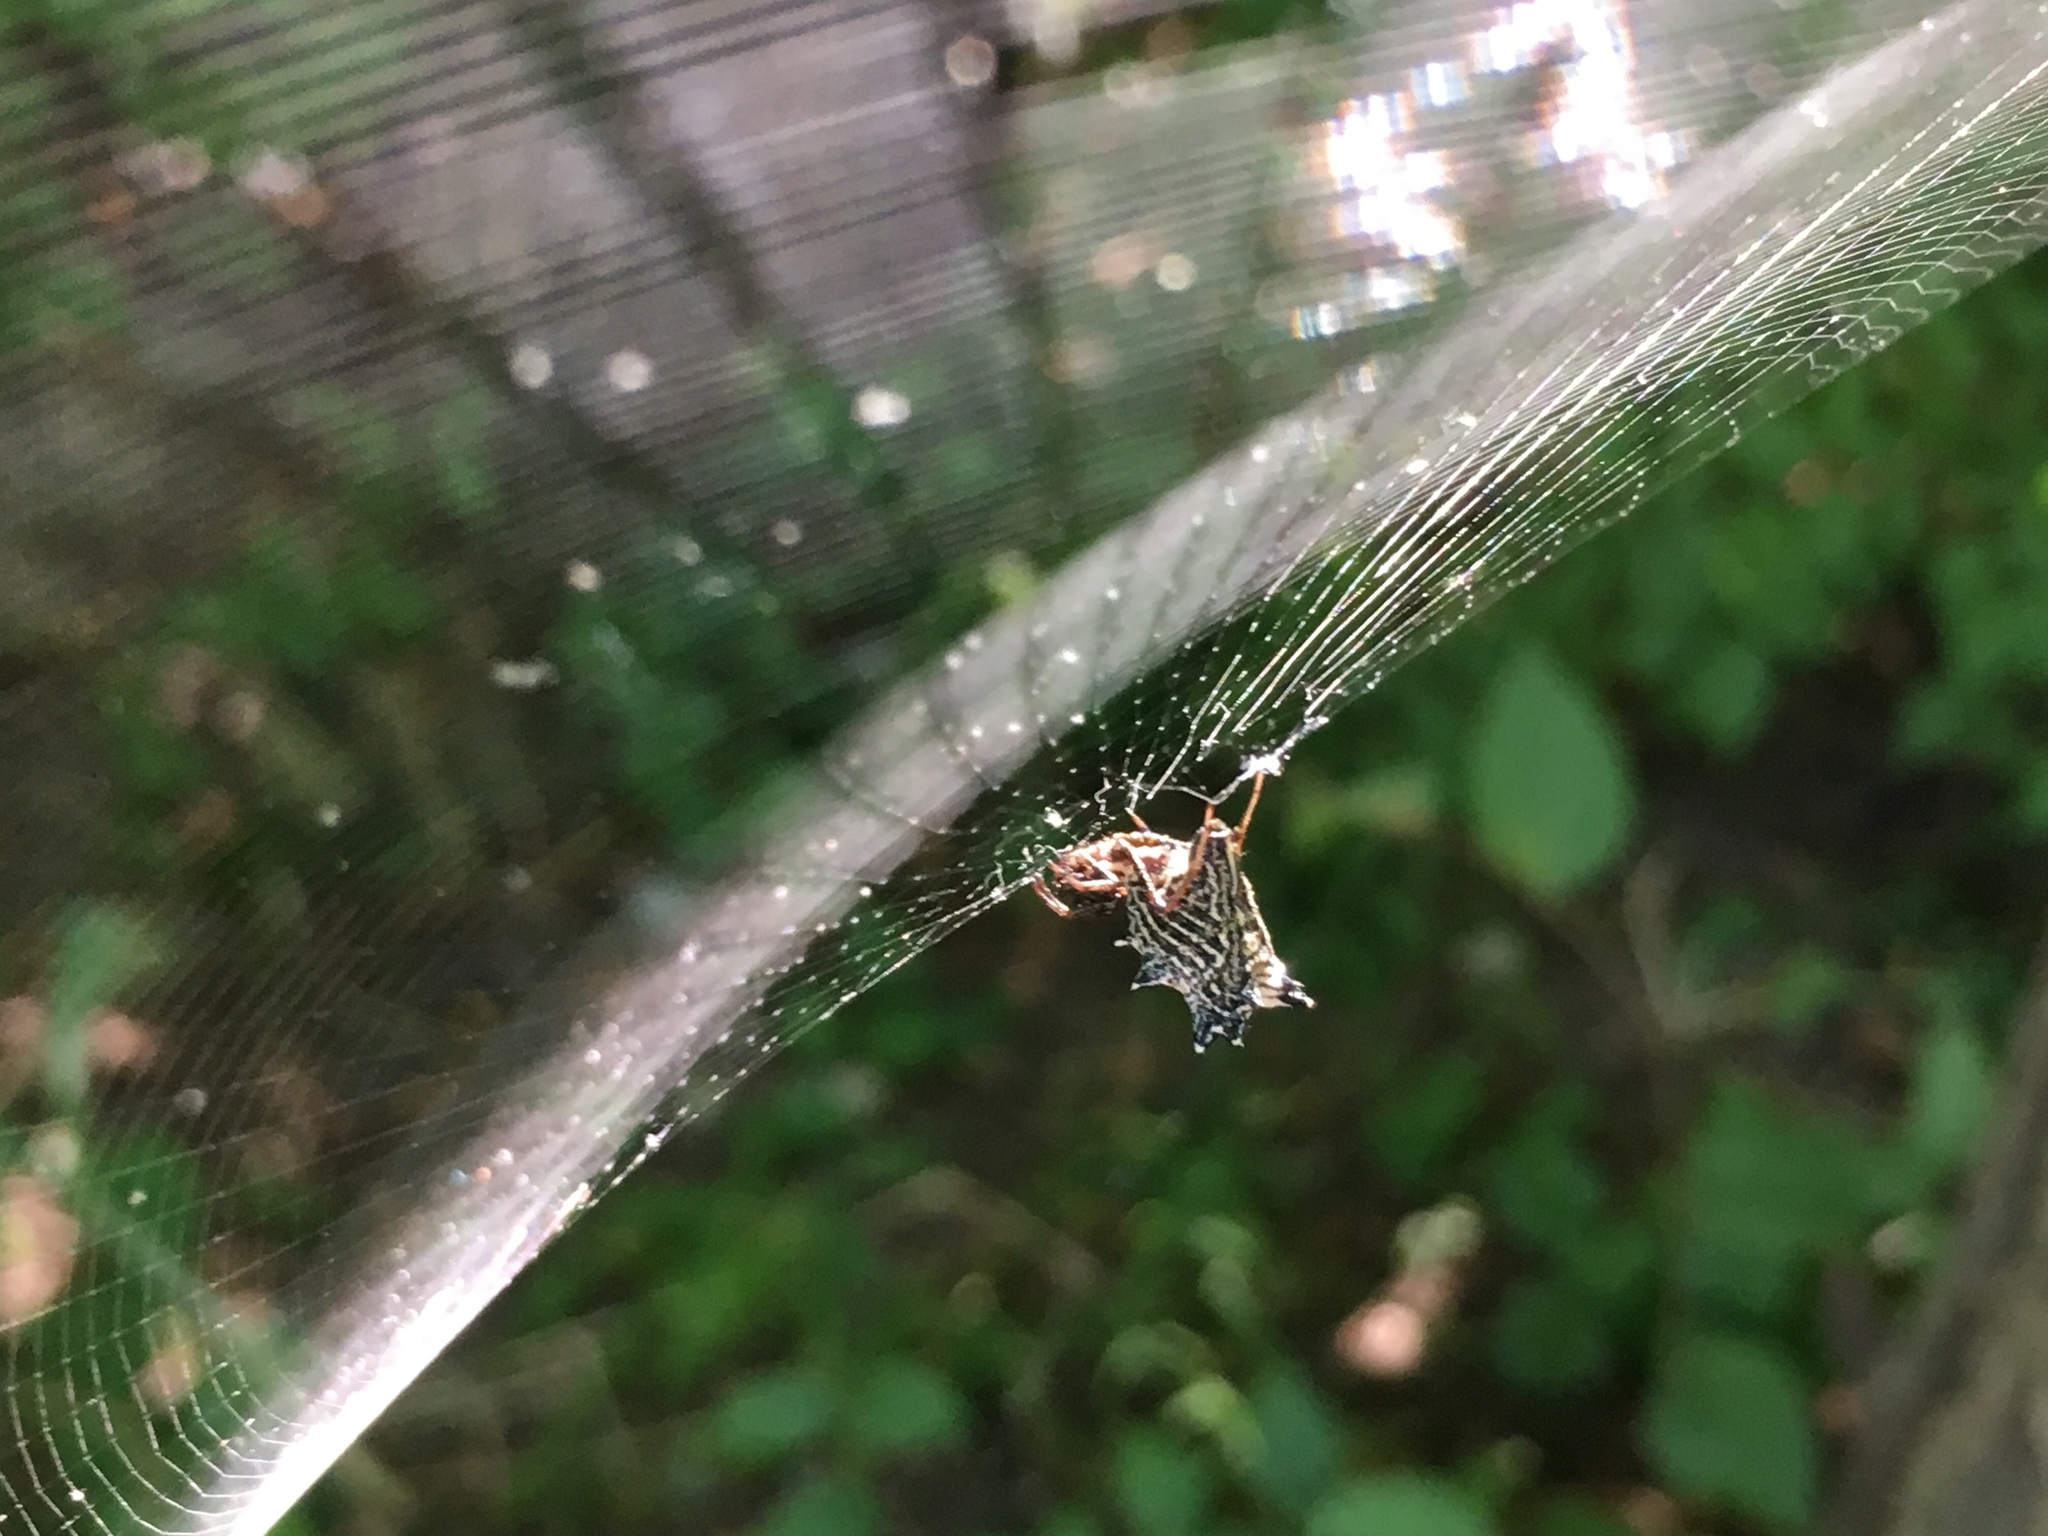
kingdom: Animalia
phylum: Arthropoda
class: Arachnida
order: Araneae
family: Araneidae
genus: Micrathena
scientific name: Micrathena gracilis
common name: Orb weavers
